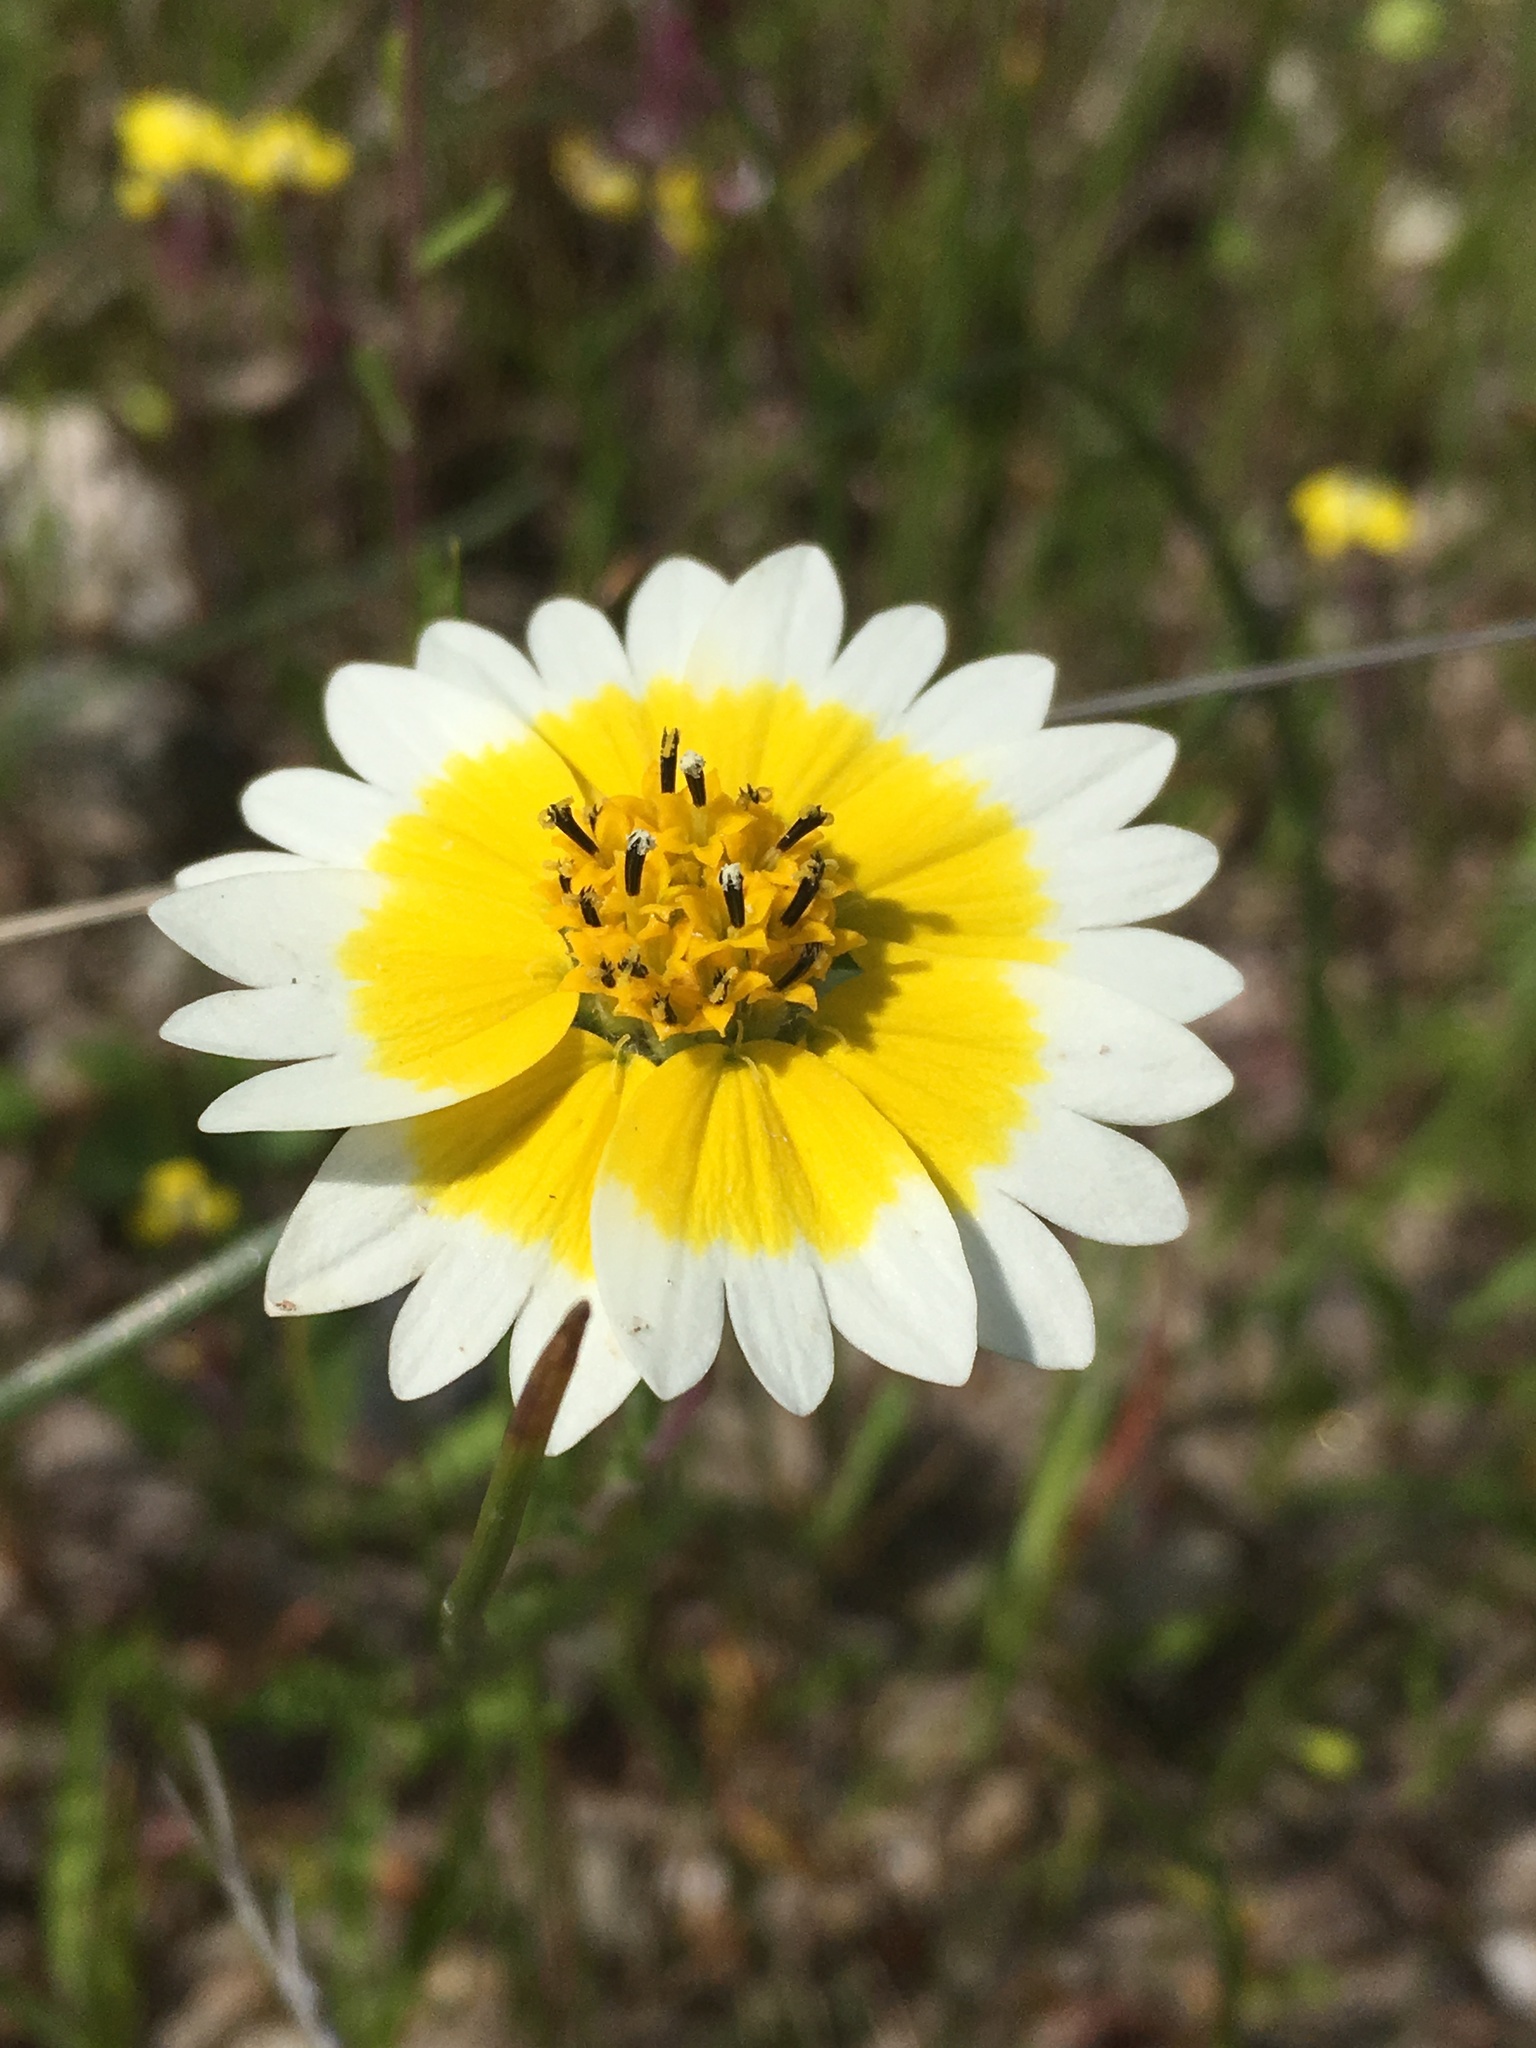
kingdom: Plantae
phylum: Tracheophyta
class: Magnoliopsida
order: Asterales
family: Asteraceae
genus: Layia
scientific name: Layia fremontii
